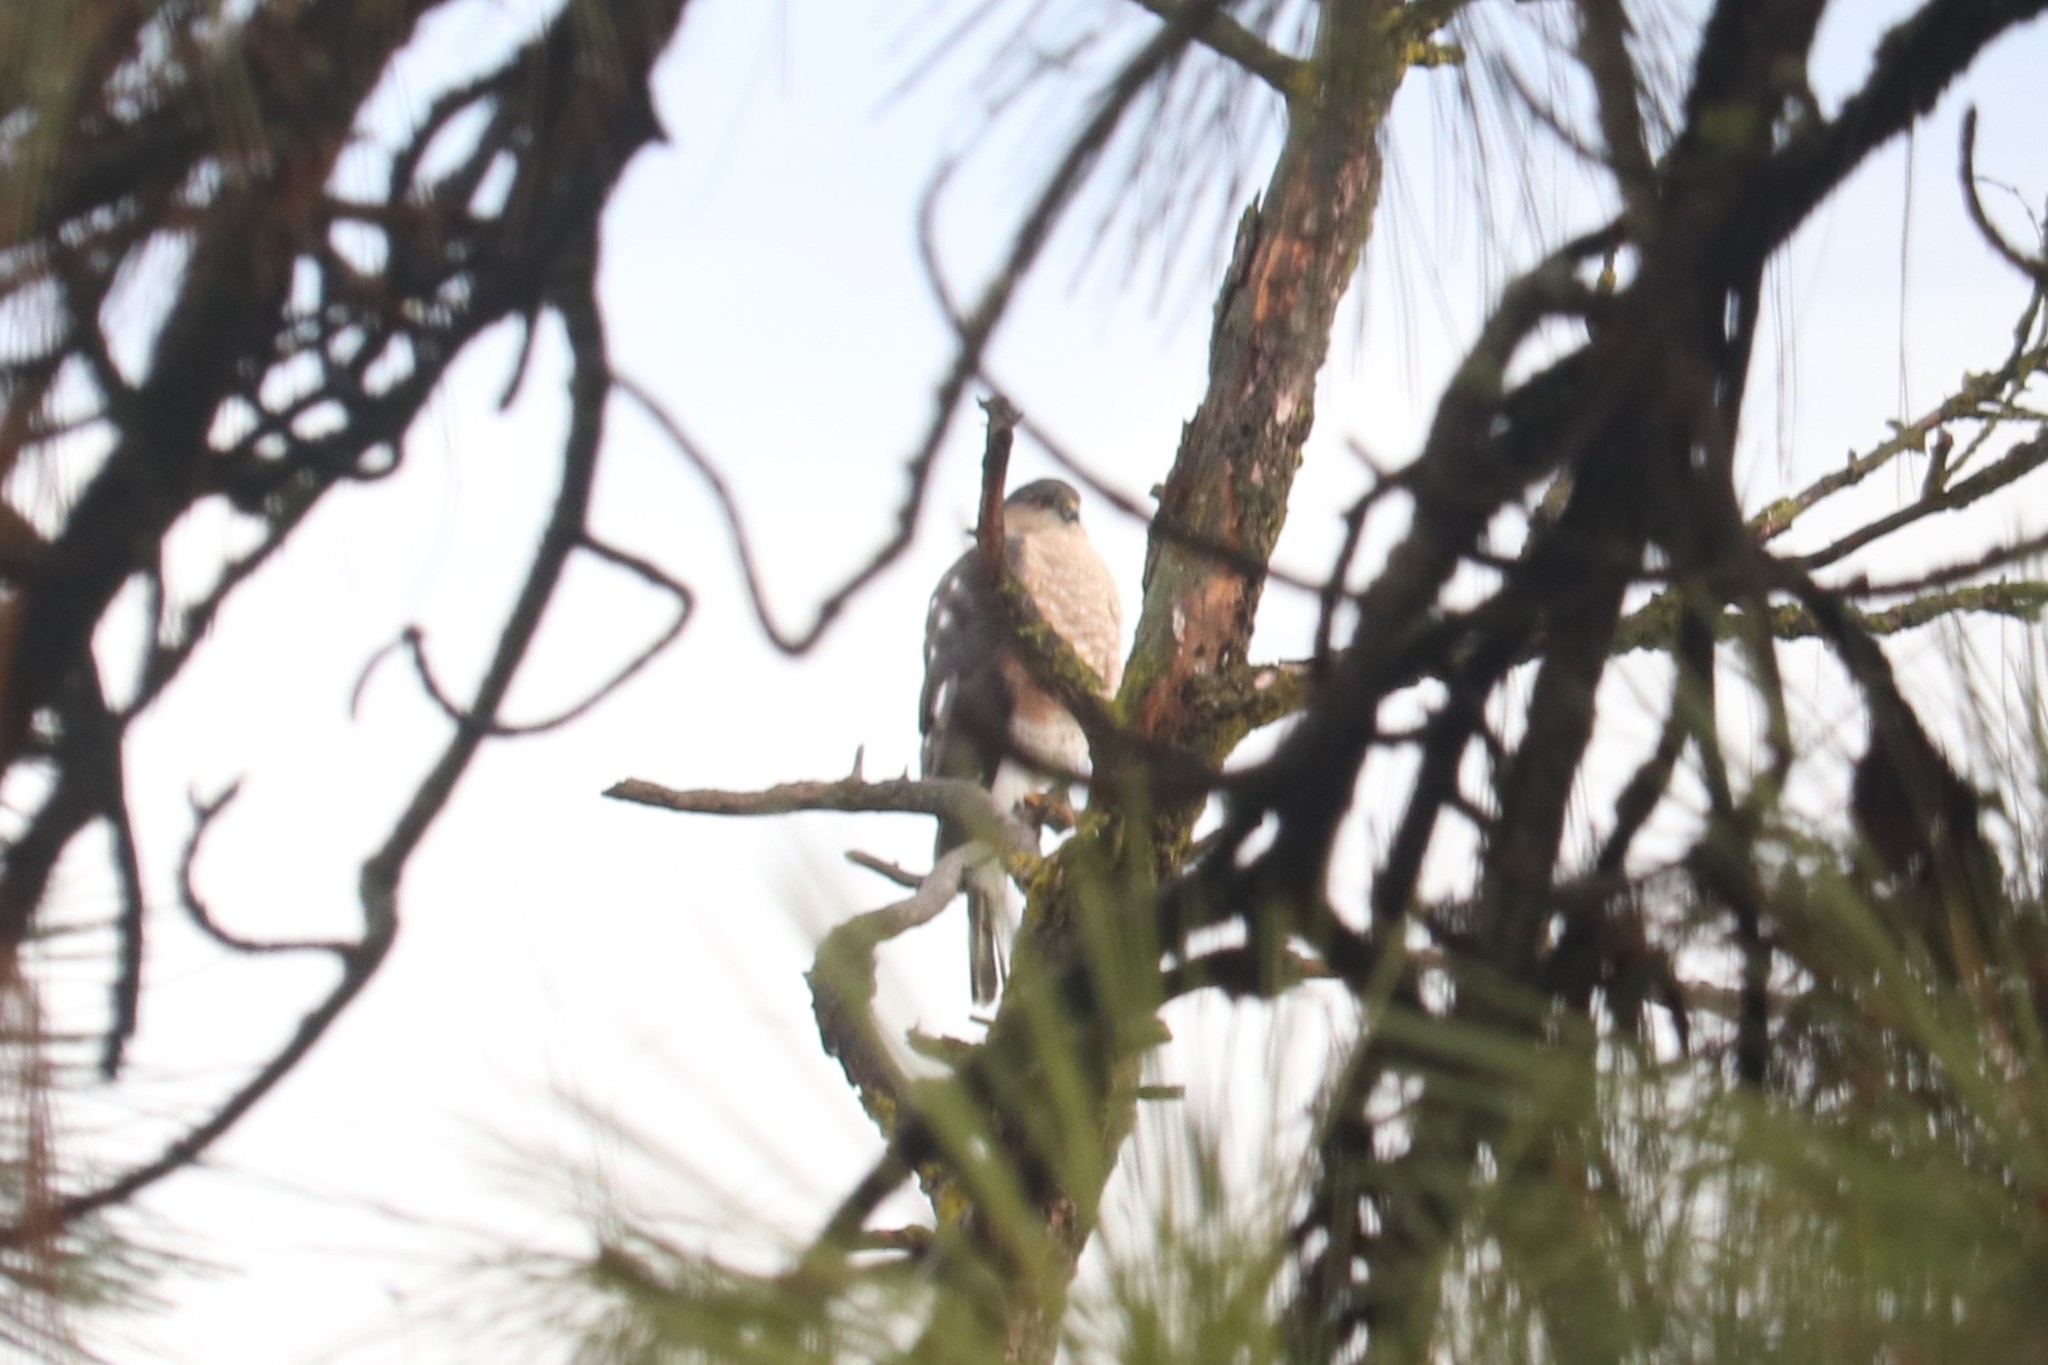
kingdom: Animalia
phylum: Chordata
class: Aves
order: Accipitriformes
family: Accipitridae
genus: Accipiter
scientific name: Accipiter striatus
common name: Sharp-shinned hawk
